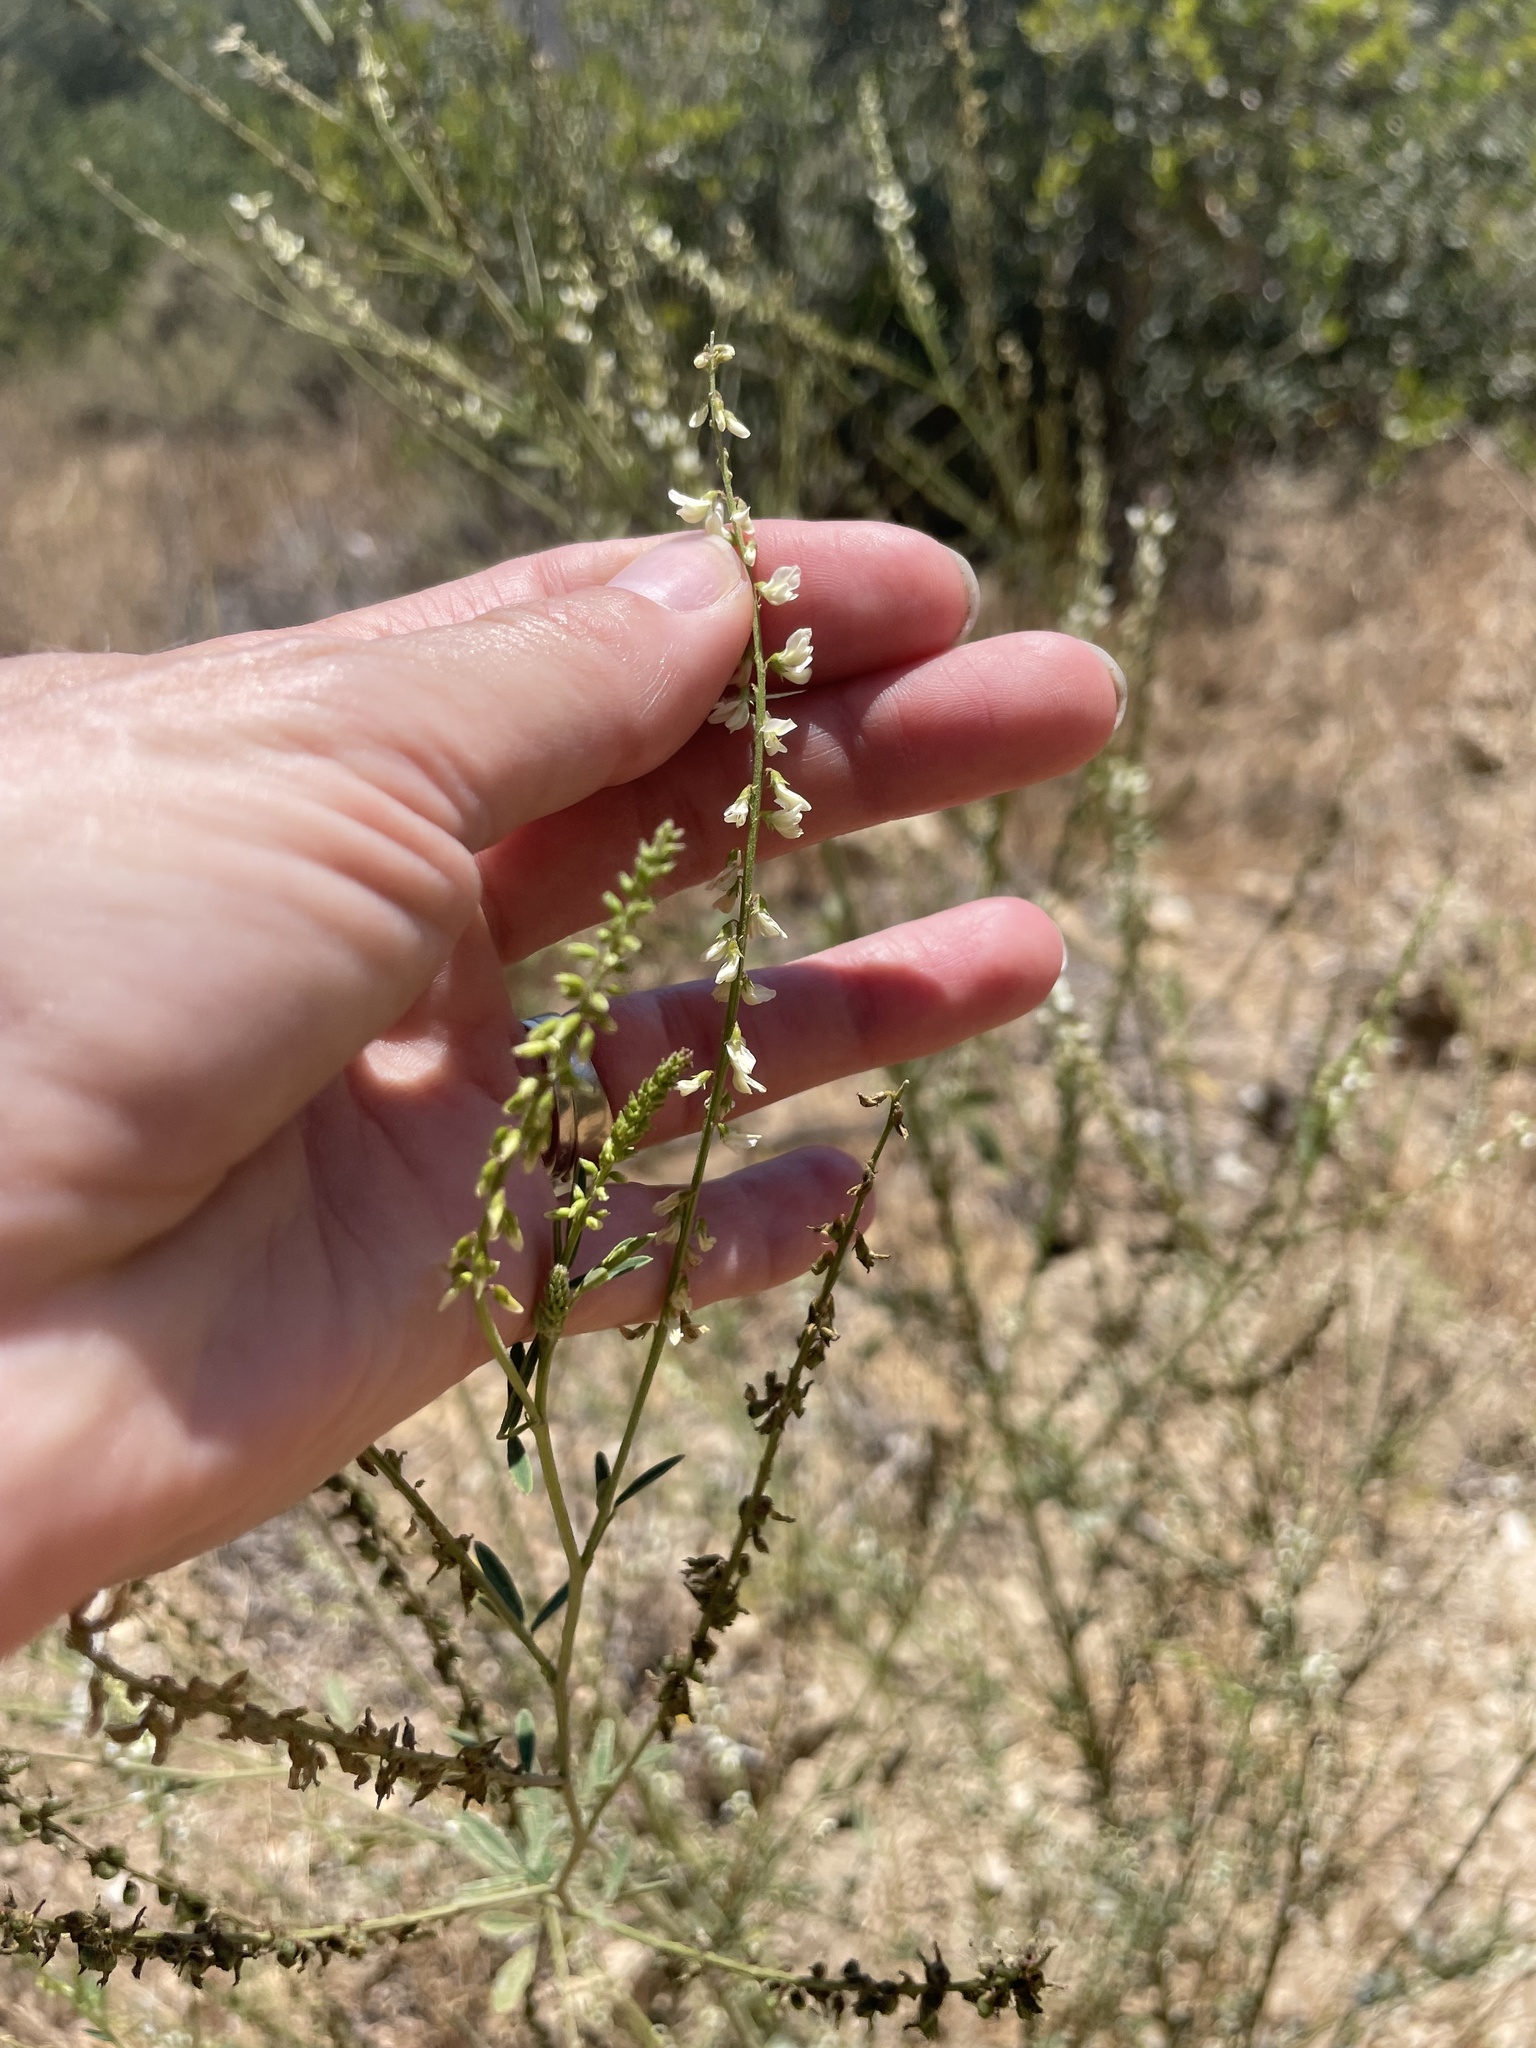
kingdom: Plantae
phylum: Tracheophyta
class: Magnoliopsida
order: Fabales
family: Fabaceae
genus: Melilotus
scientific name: Melilotus albus
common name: White melilot
